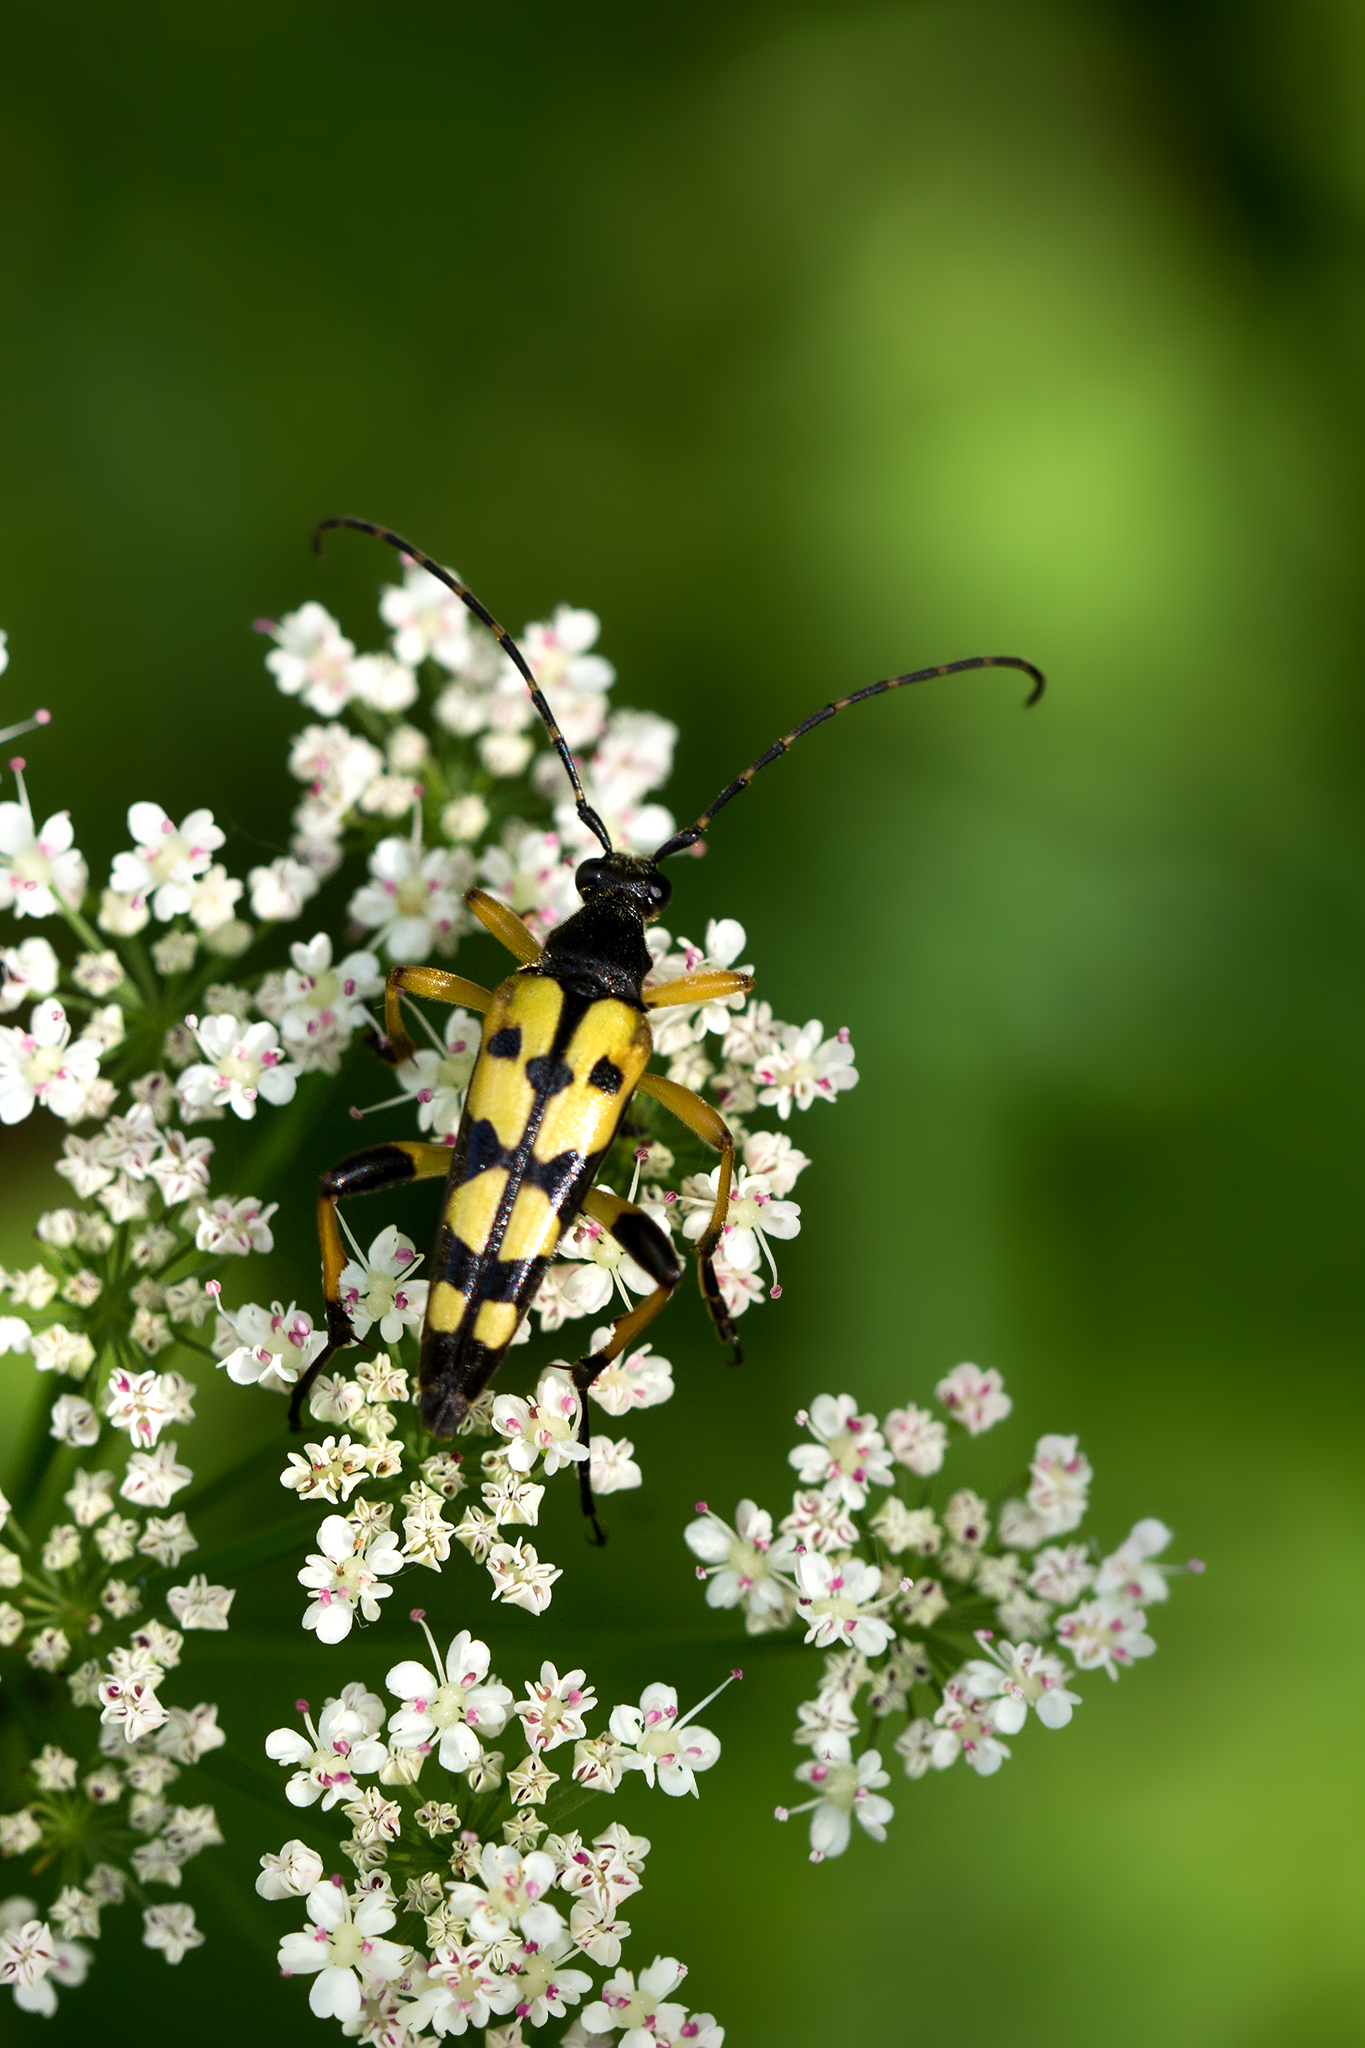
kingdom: Animalia
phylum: Arthropoda
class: Insecta
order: Coleoptera
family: Cerambycidae
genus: Rutpela
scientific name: Rutpela maculata
